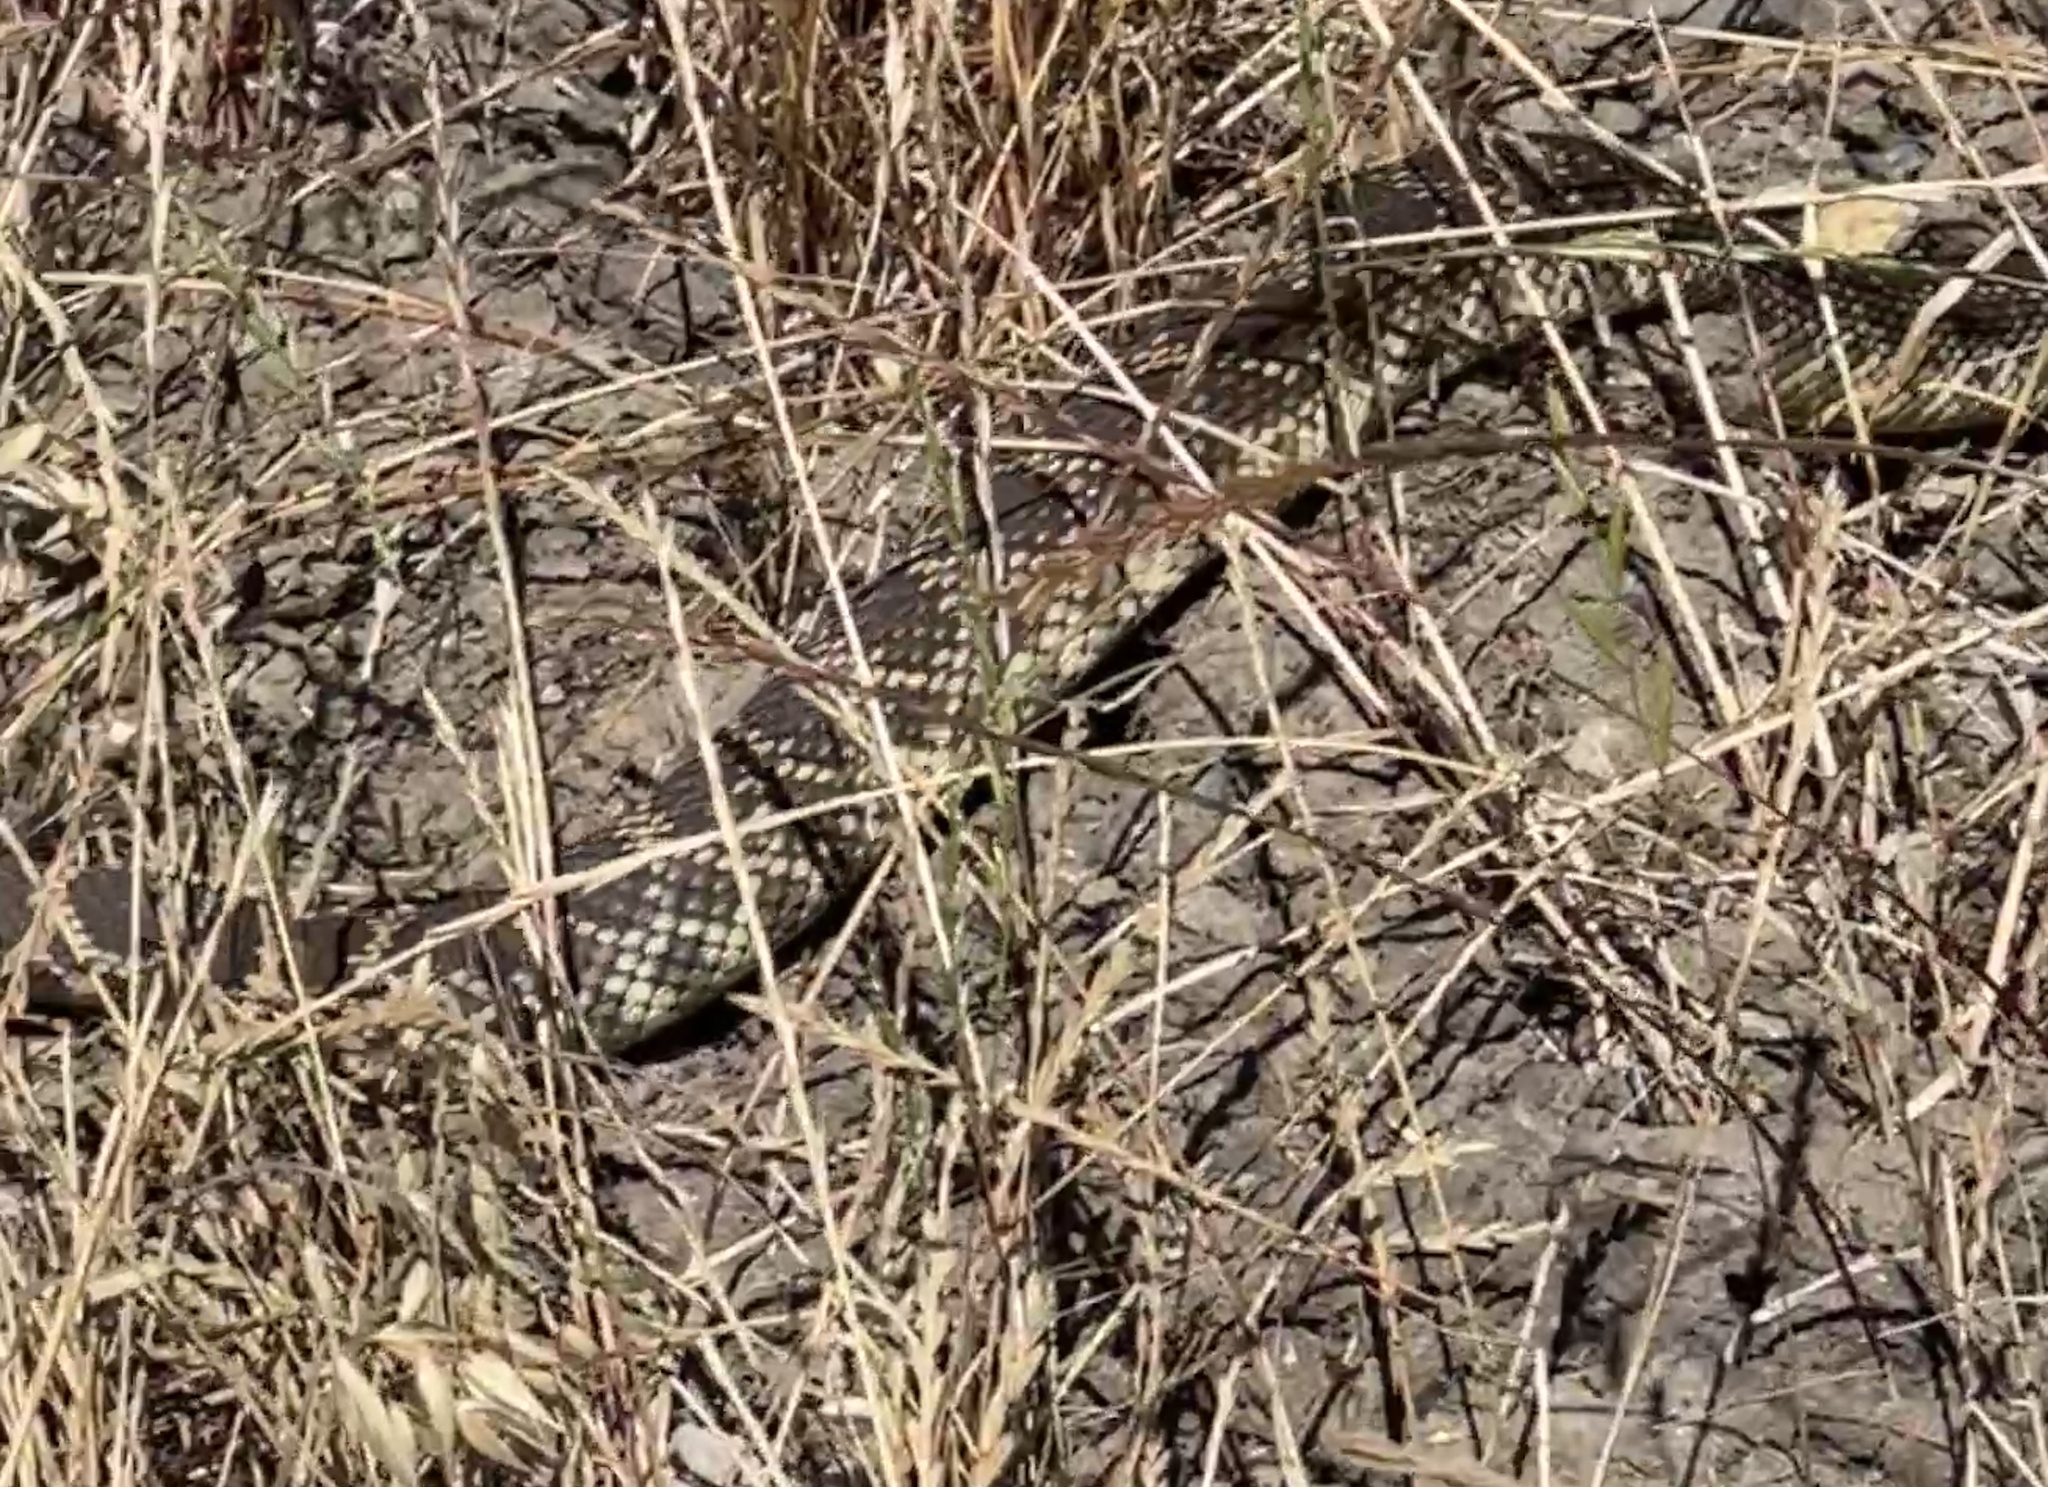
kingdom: Animalia
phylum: Chordata
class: Squamata
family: Viperidae
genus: Crotalus
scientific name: Crotalus oreganus
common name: Abyssus
